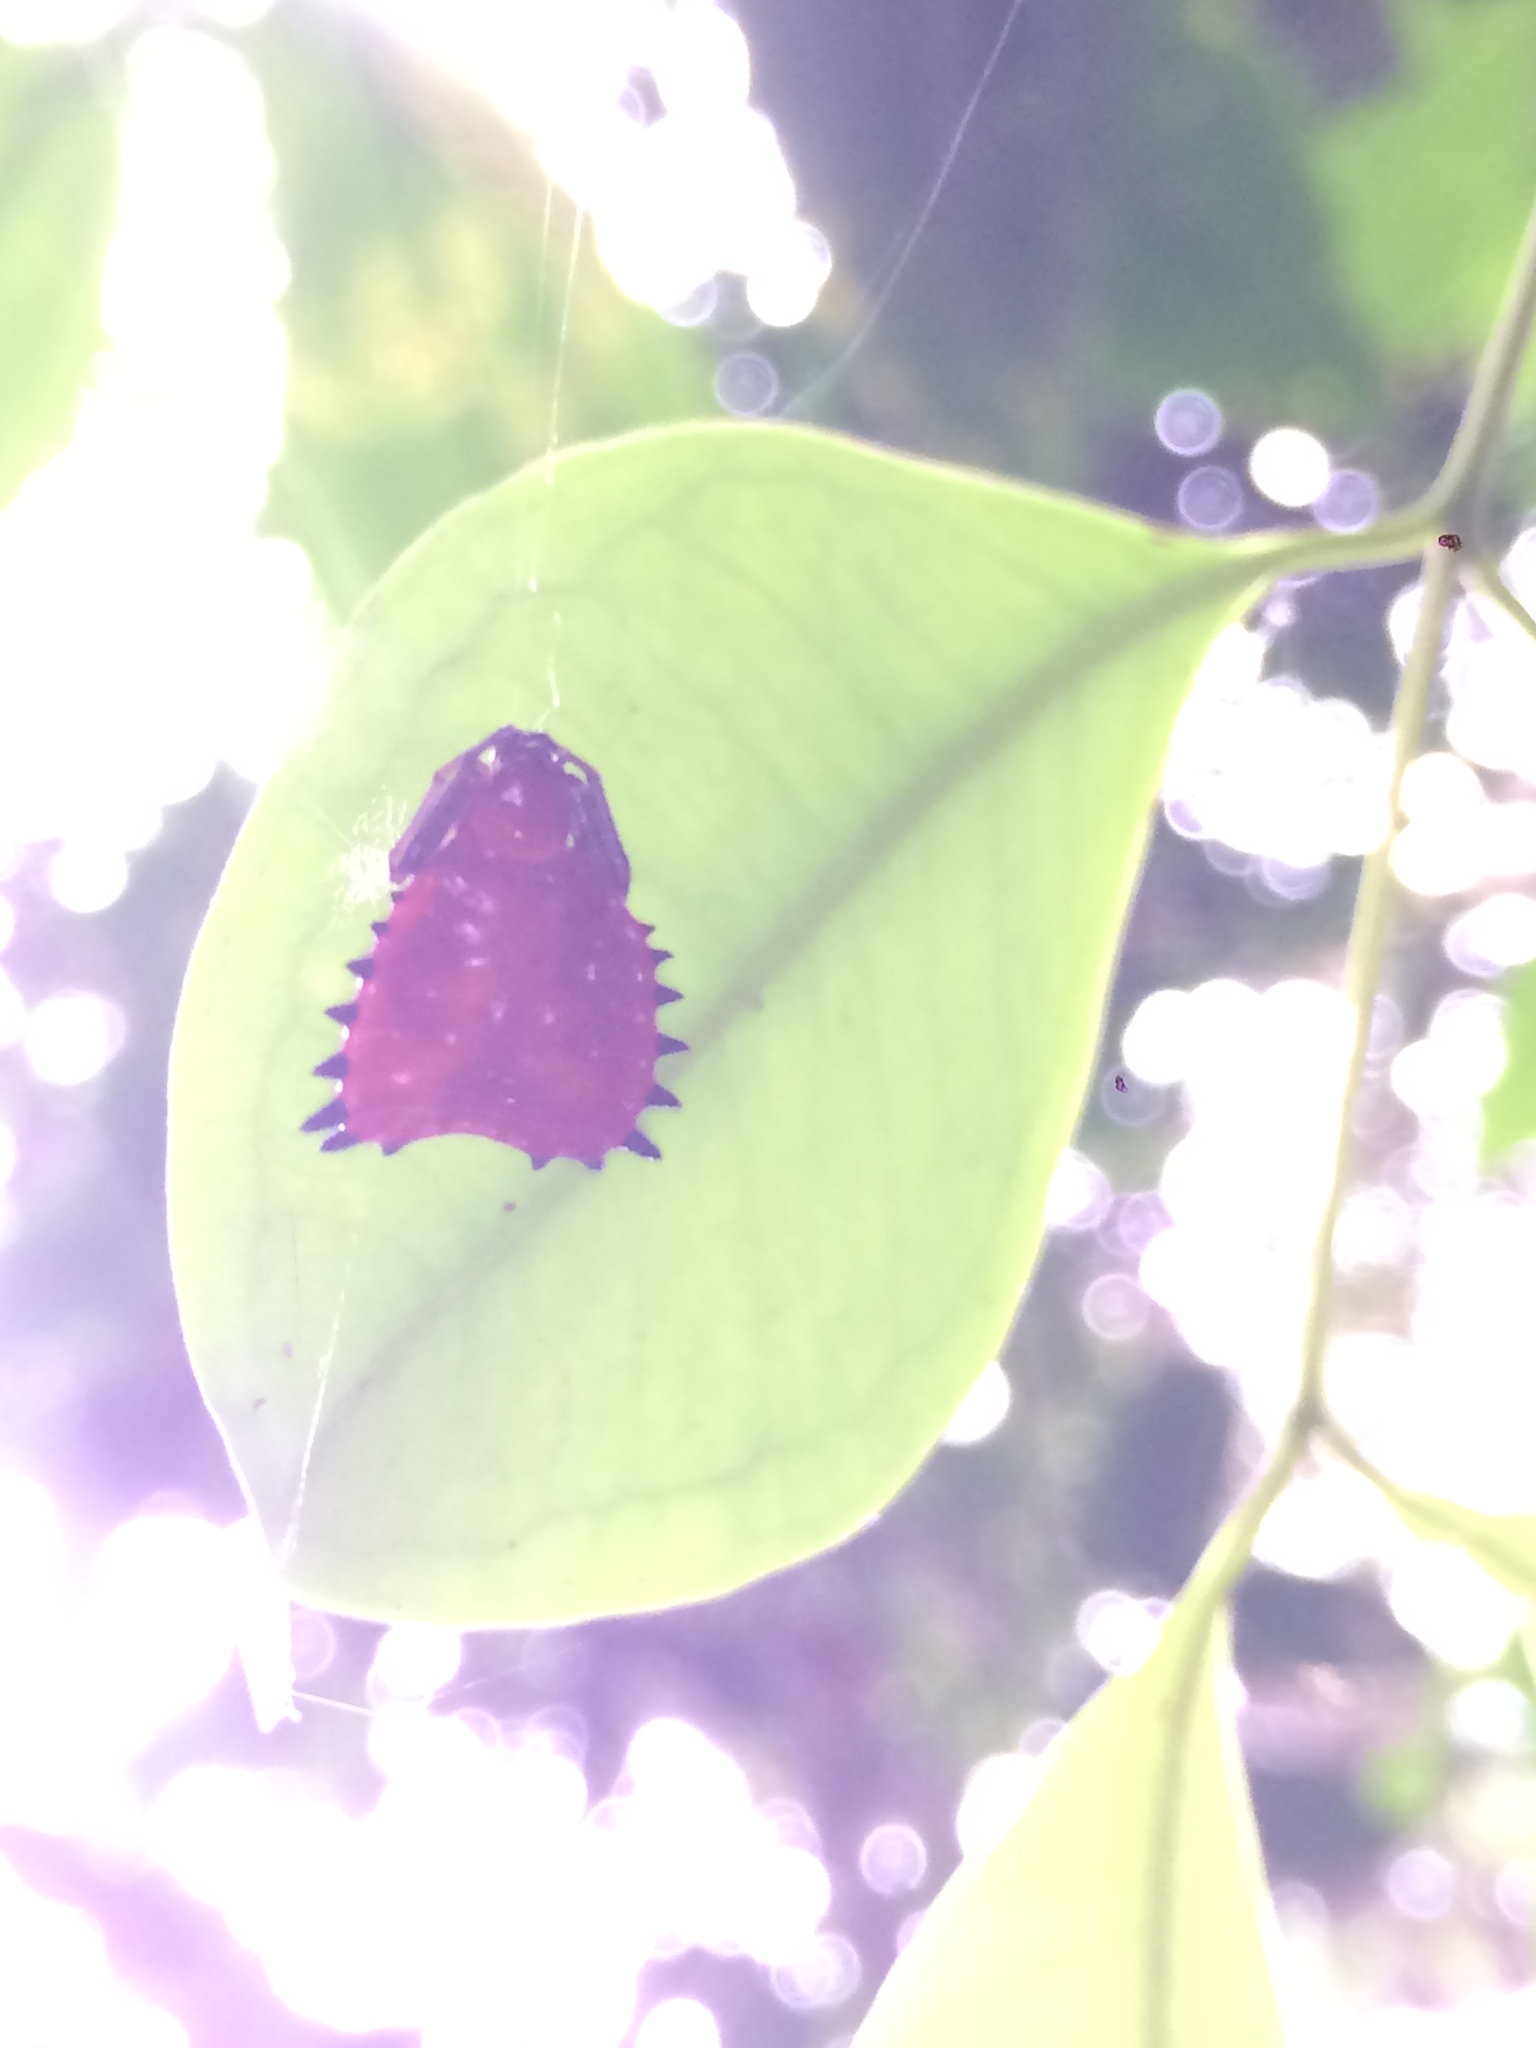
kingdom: Animalia
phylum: Arthropoda
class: Arachnida
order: Araneae
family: Araneidae
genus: Micrathena
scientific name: Micrathena ruschii
